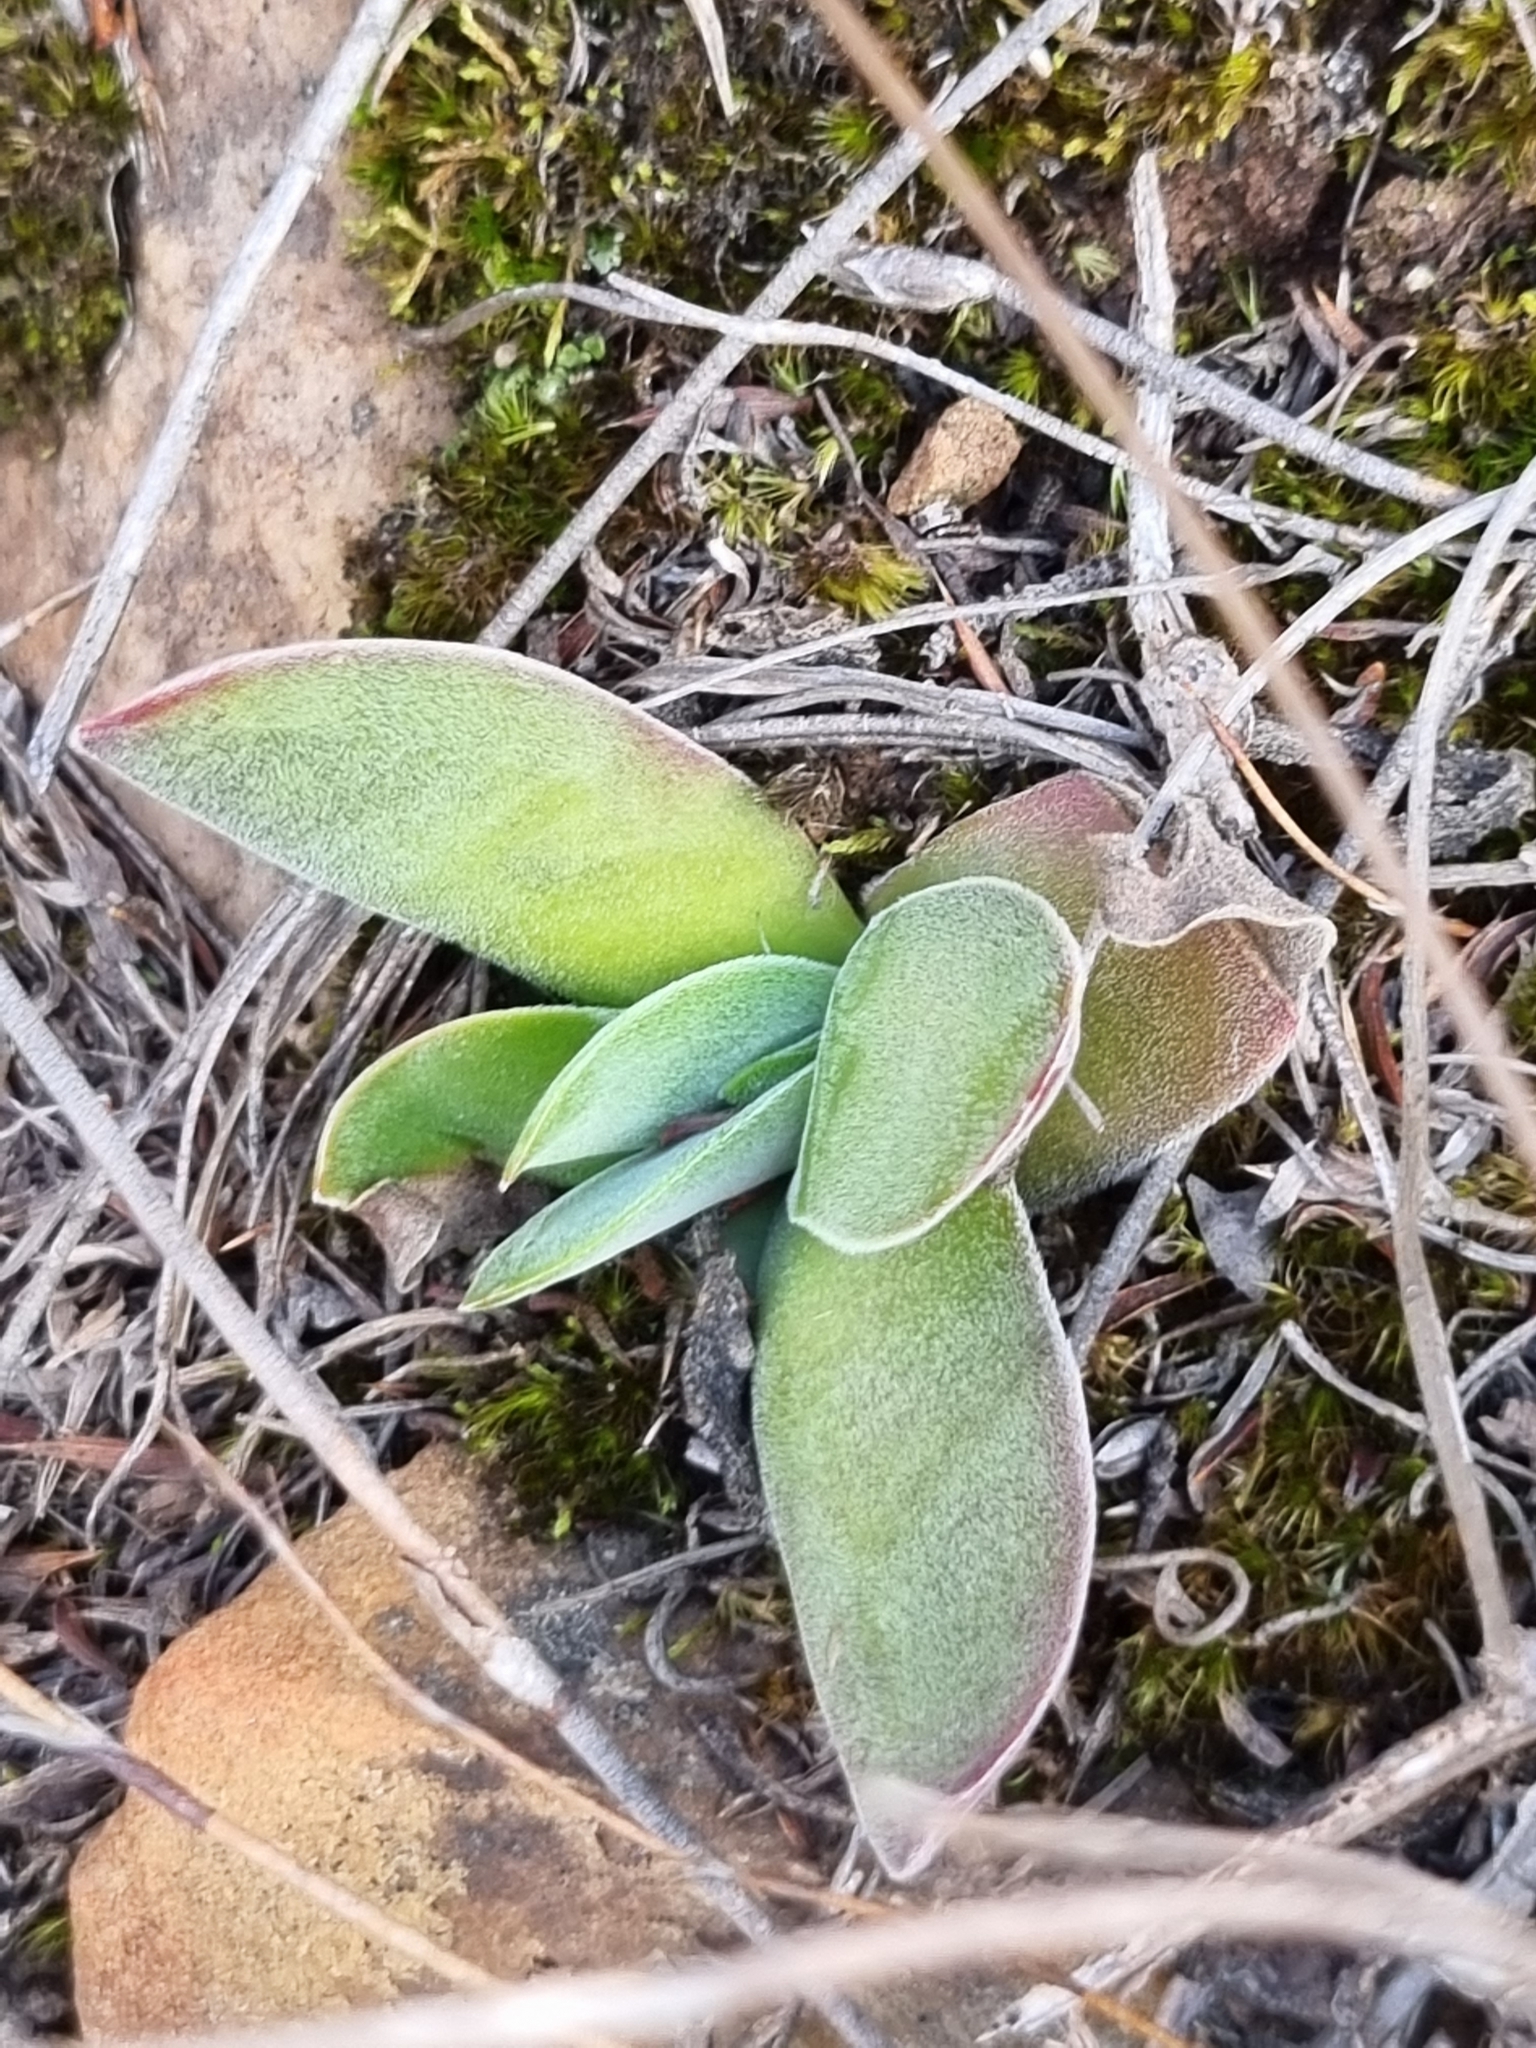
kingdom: Plantae
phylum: Tracheophyta
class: Magnoliopsida
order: Saxifragales
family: Crassulaceae
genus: Crassula
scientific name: Crassula nudicaulis
